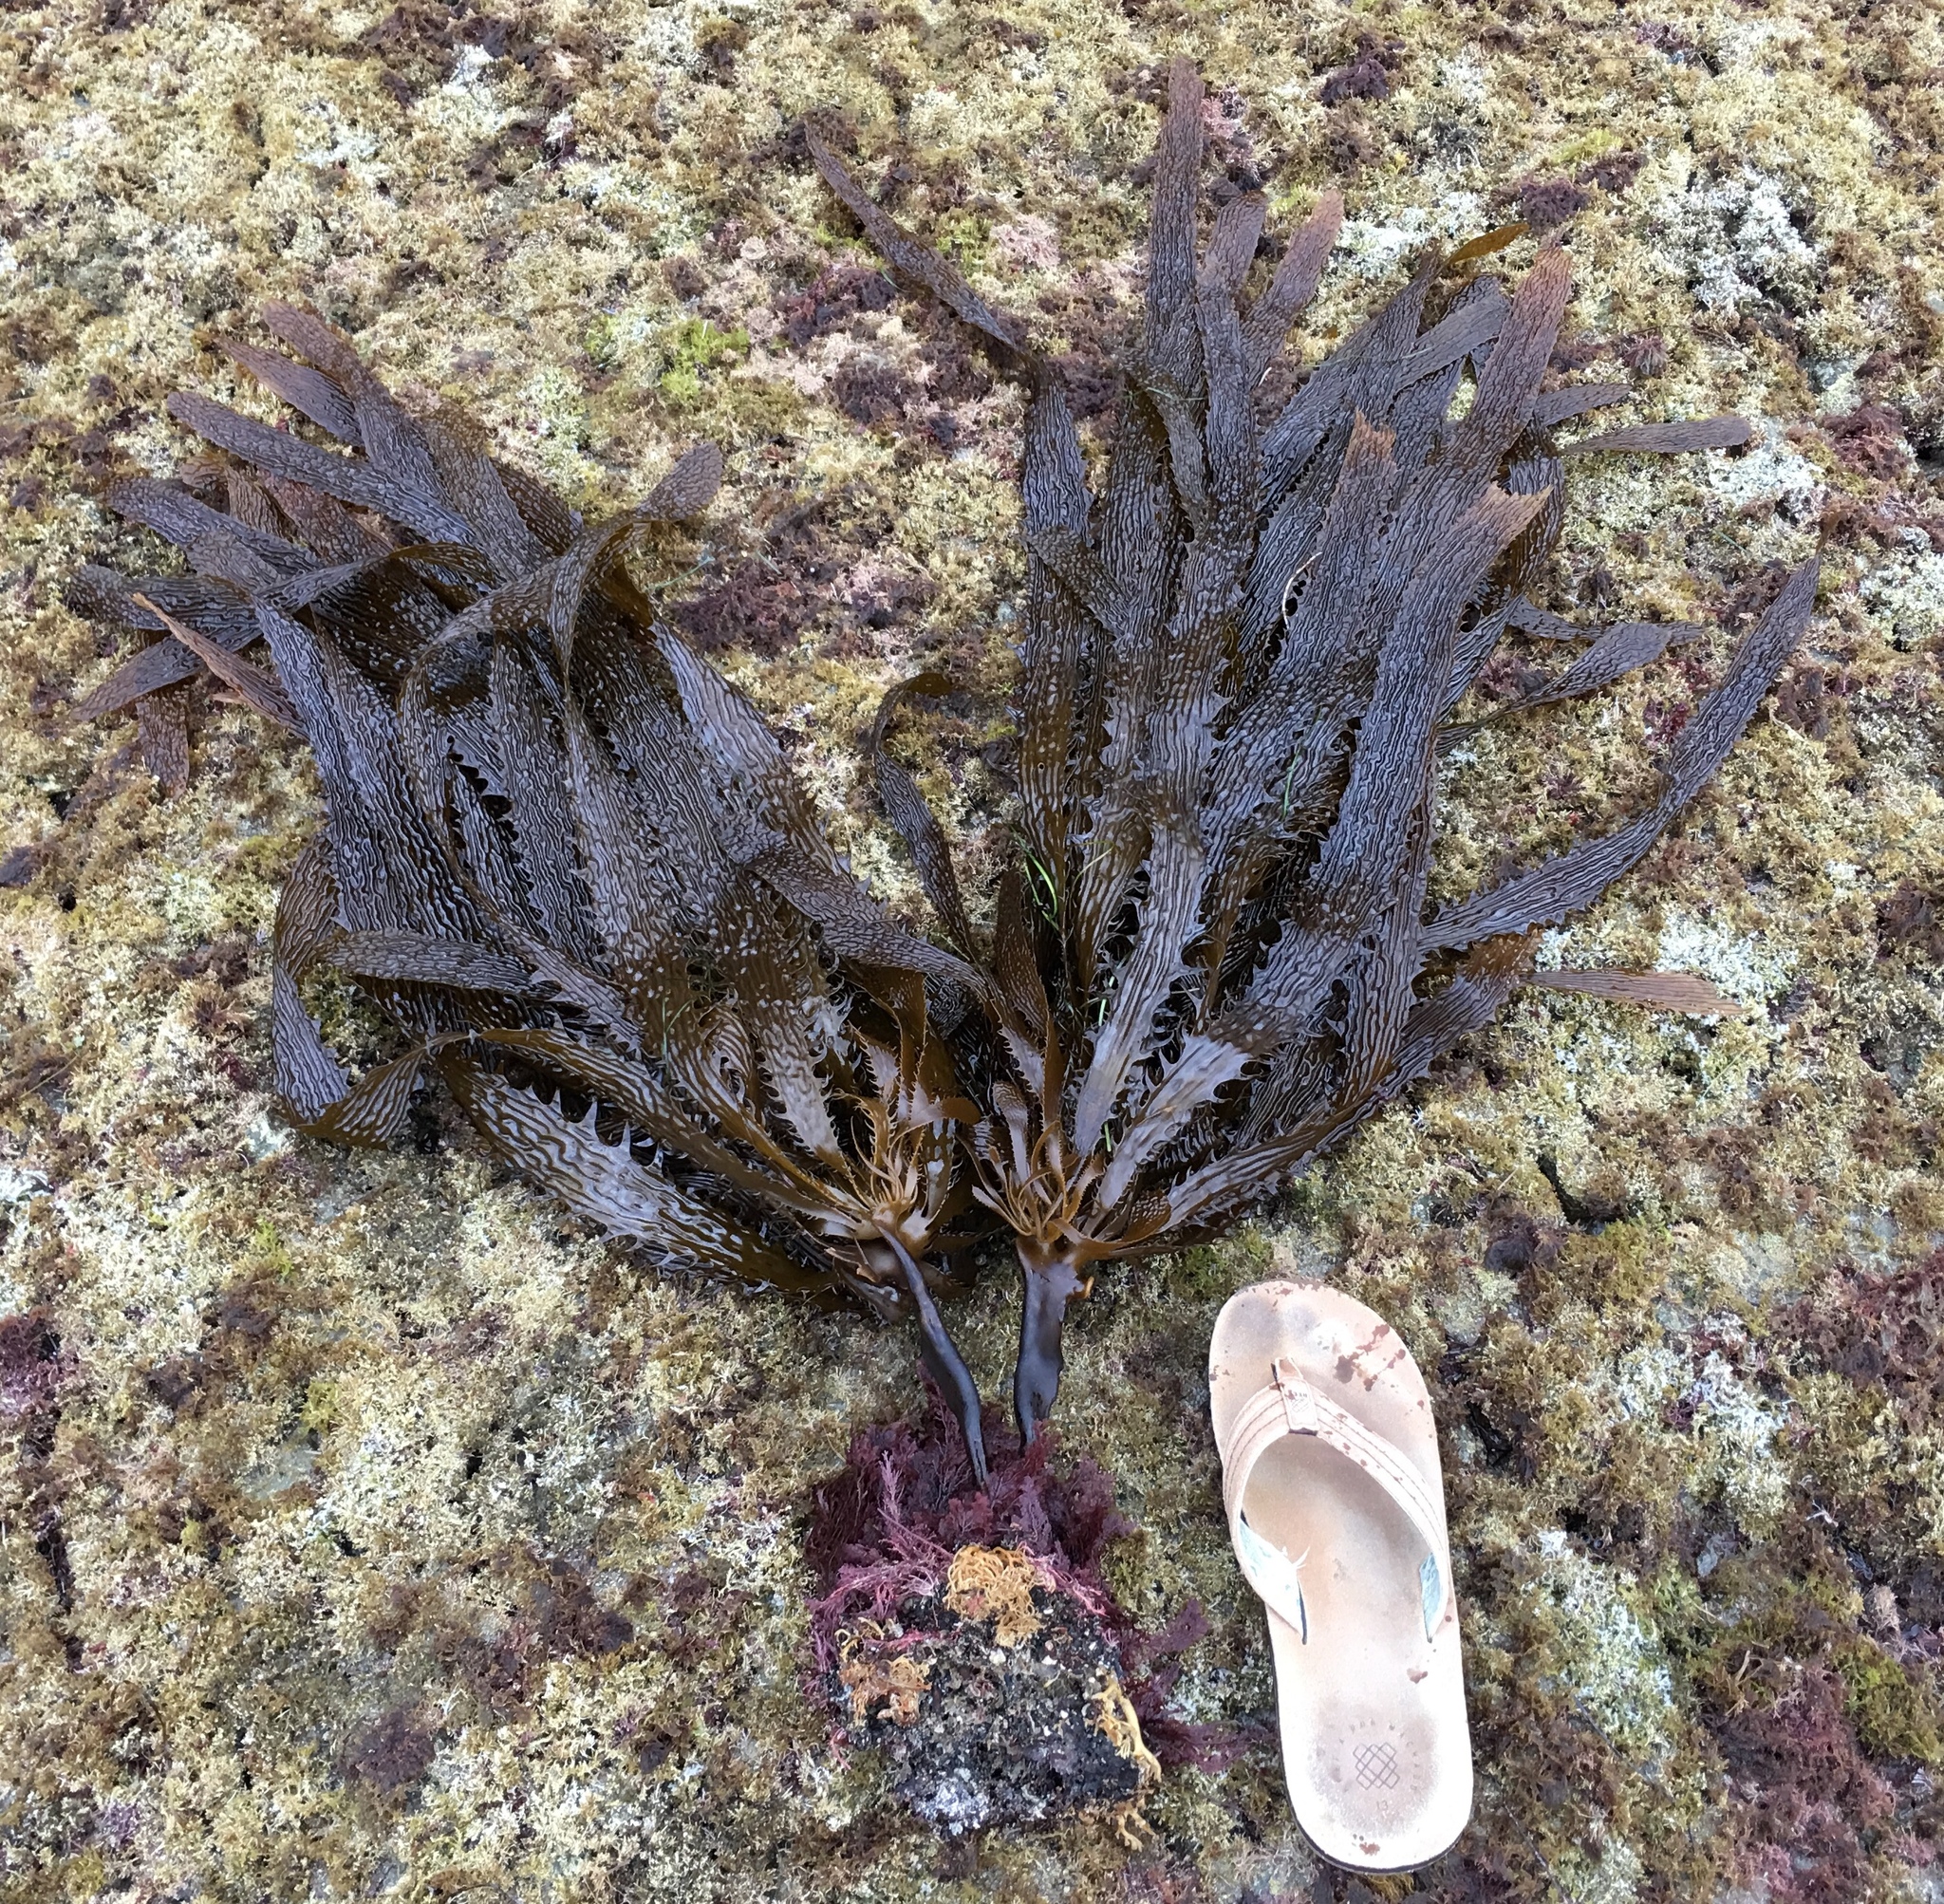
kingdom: Chromista
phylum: Ochrophyta
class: Phaeophyceae
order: Laminariales
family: Lessoniaceae
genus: Eisenia
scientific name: Eisenia arborea
